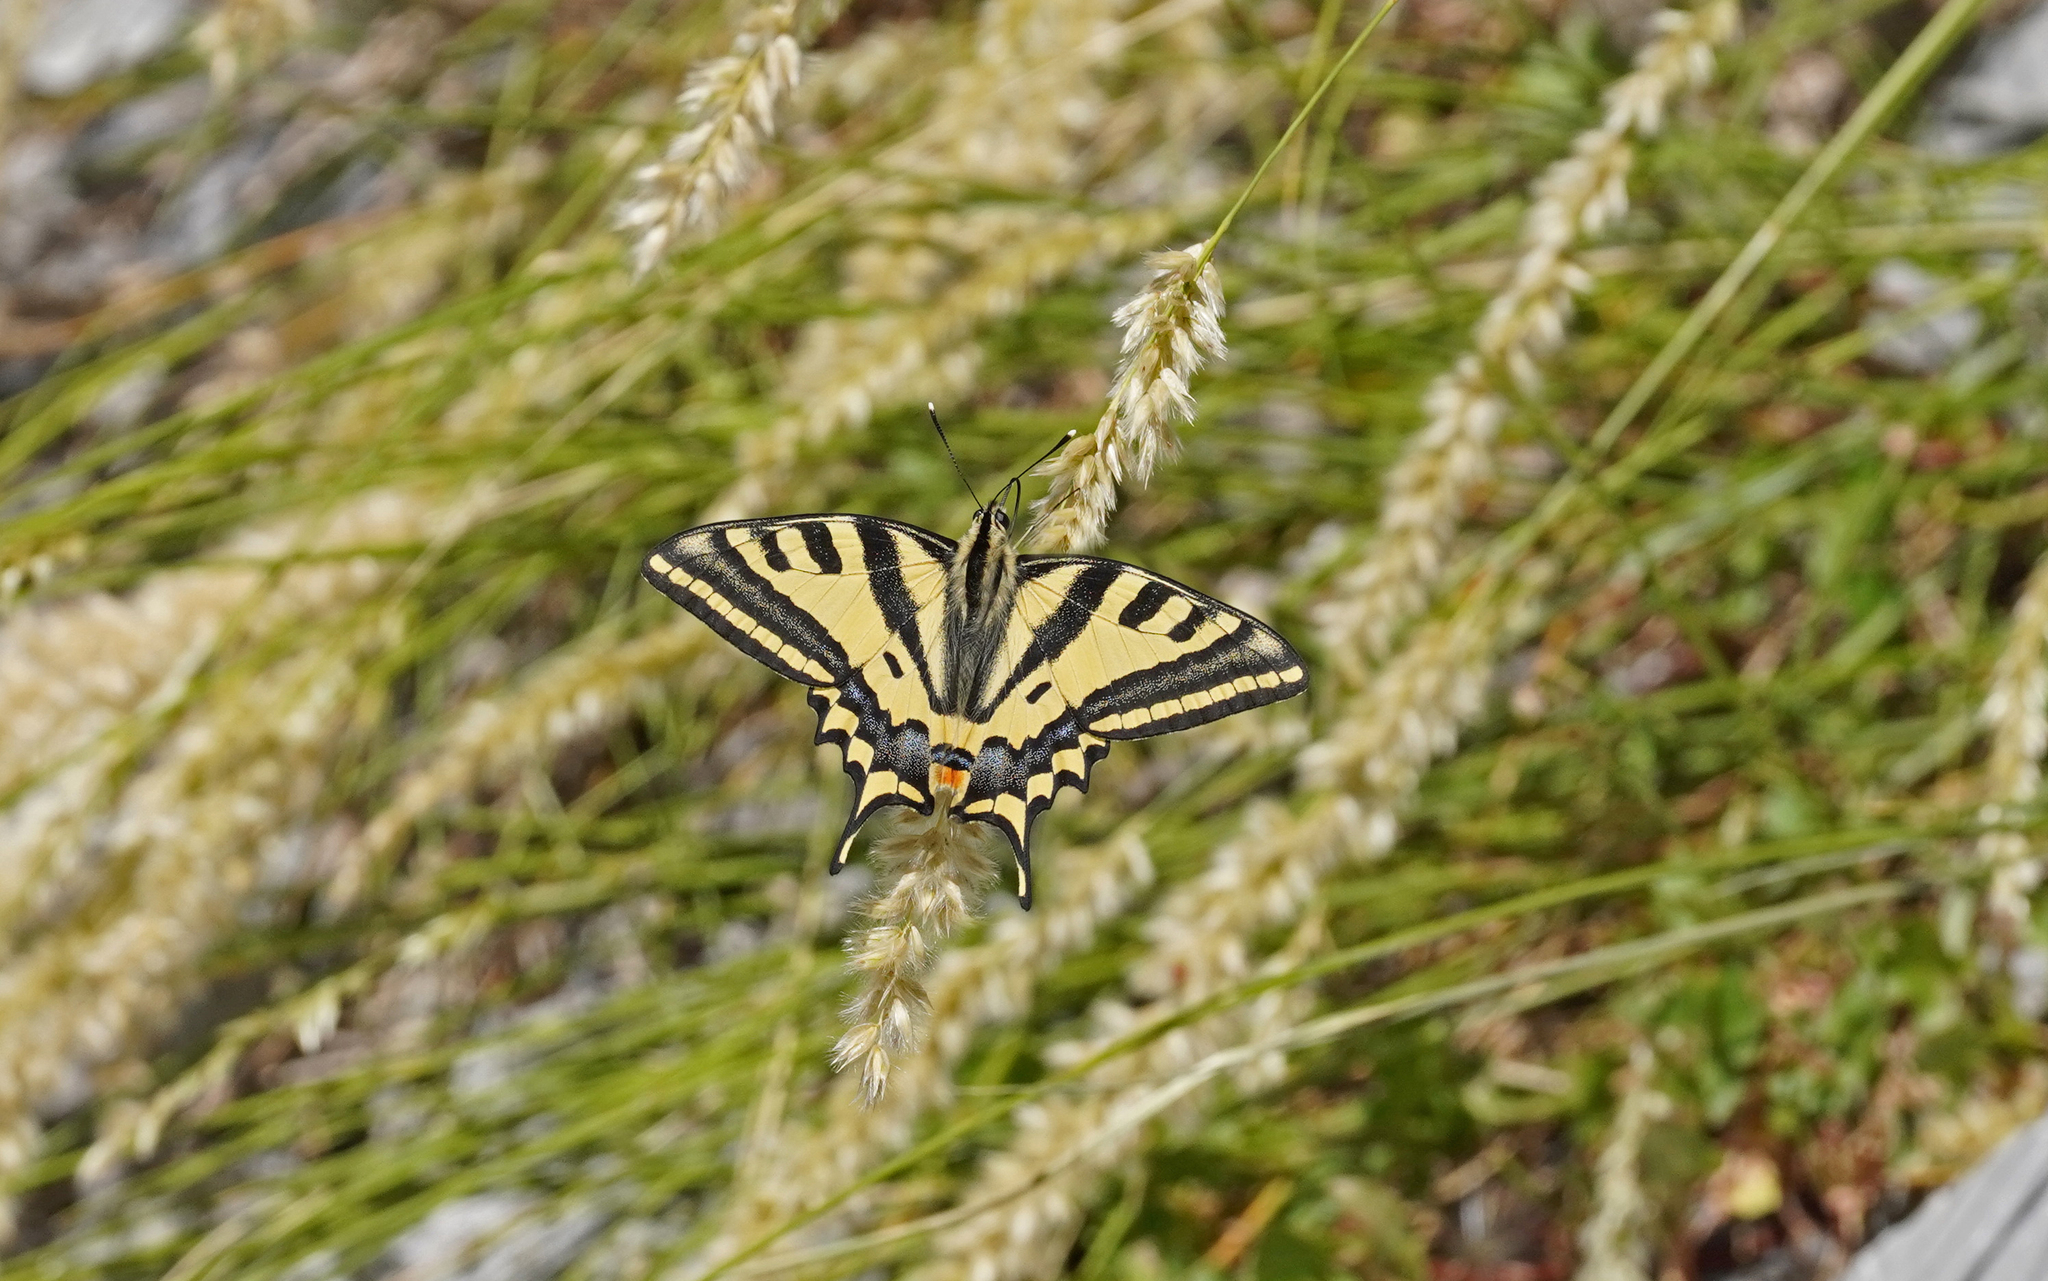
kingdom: Animalia
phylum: Arthropoda
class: Insecta
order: Lepidoptera
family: Papilionidae
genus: Papilio
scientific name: Papilio alexanor
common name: Southern swallowtail
